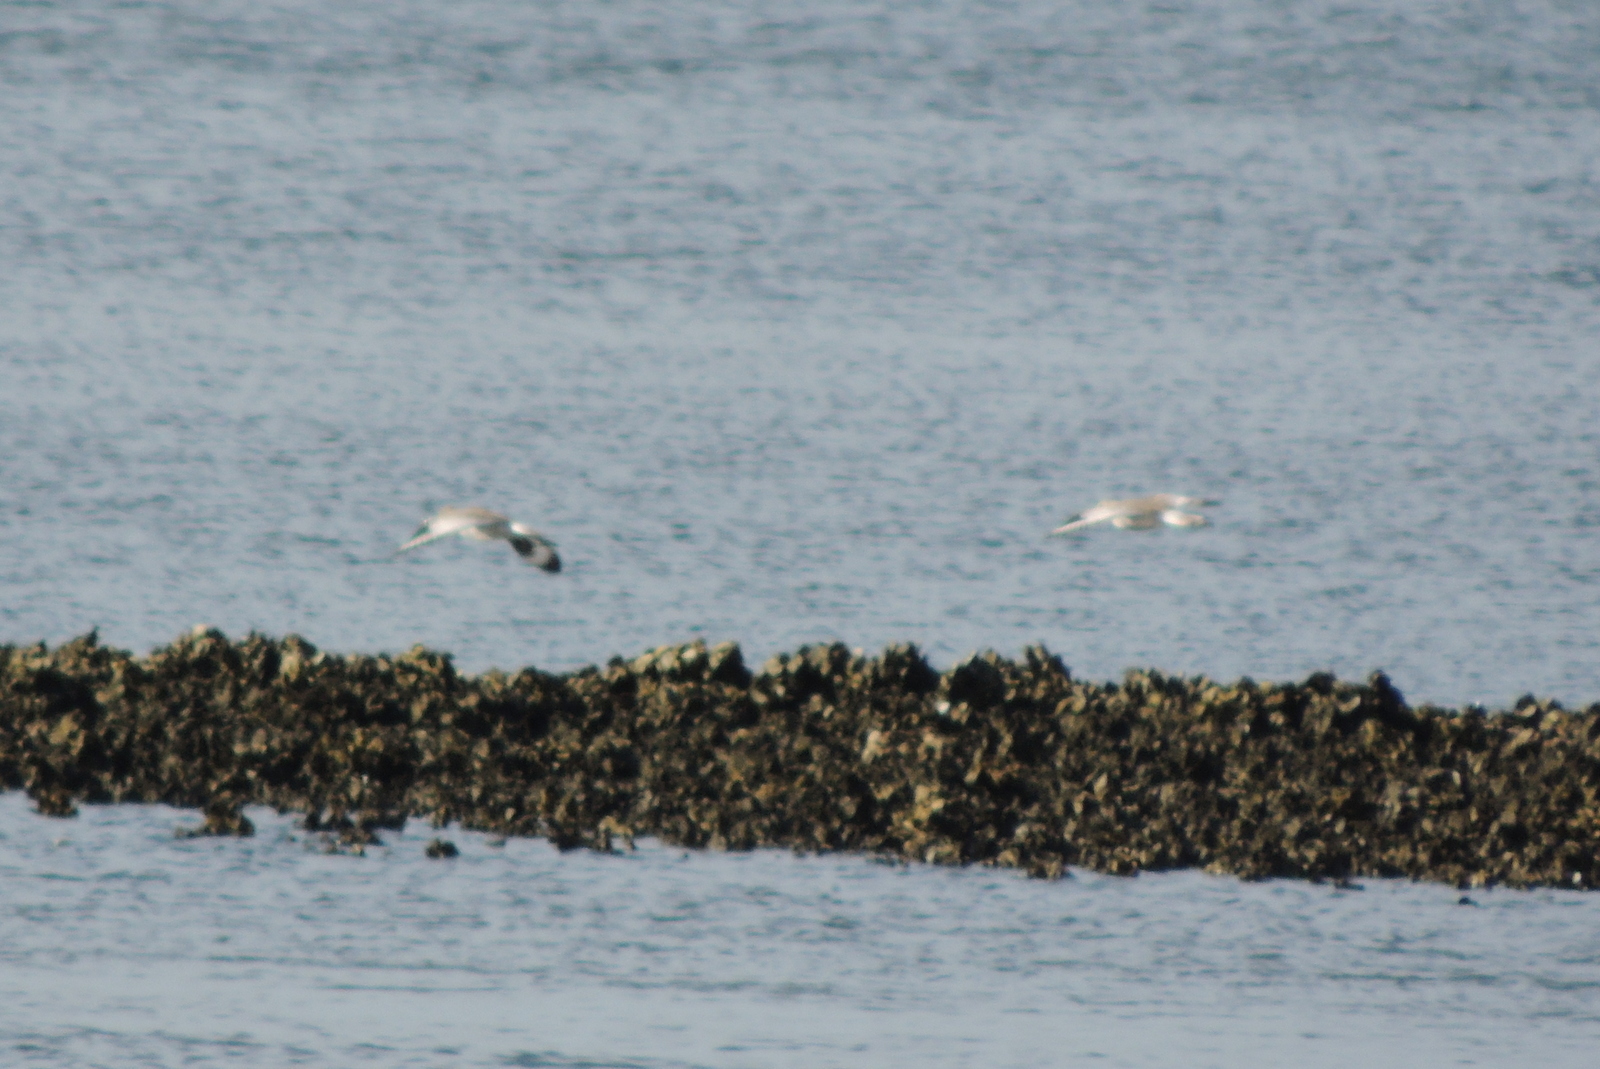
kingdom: Animalia
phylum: Chordata
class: Aves
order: Charadriiformes
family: Scolopacidae
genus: Tringa
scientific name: Tringa semipalmata
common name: Willet
